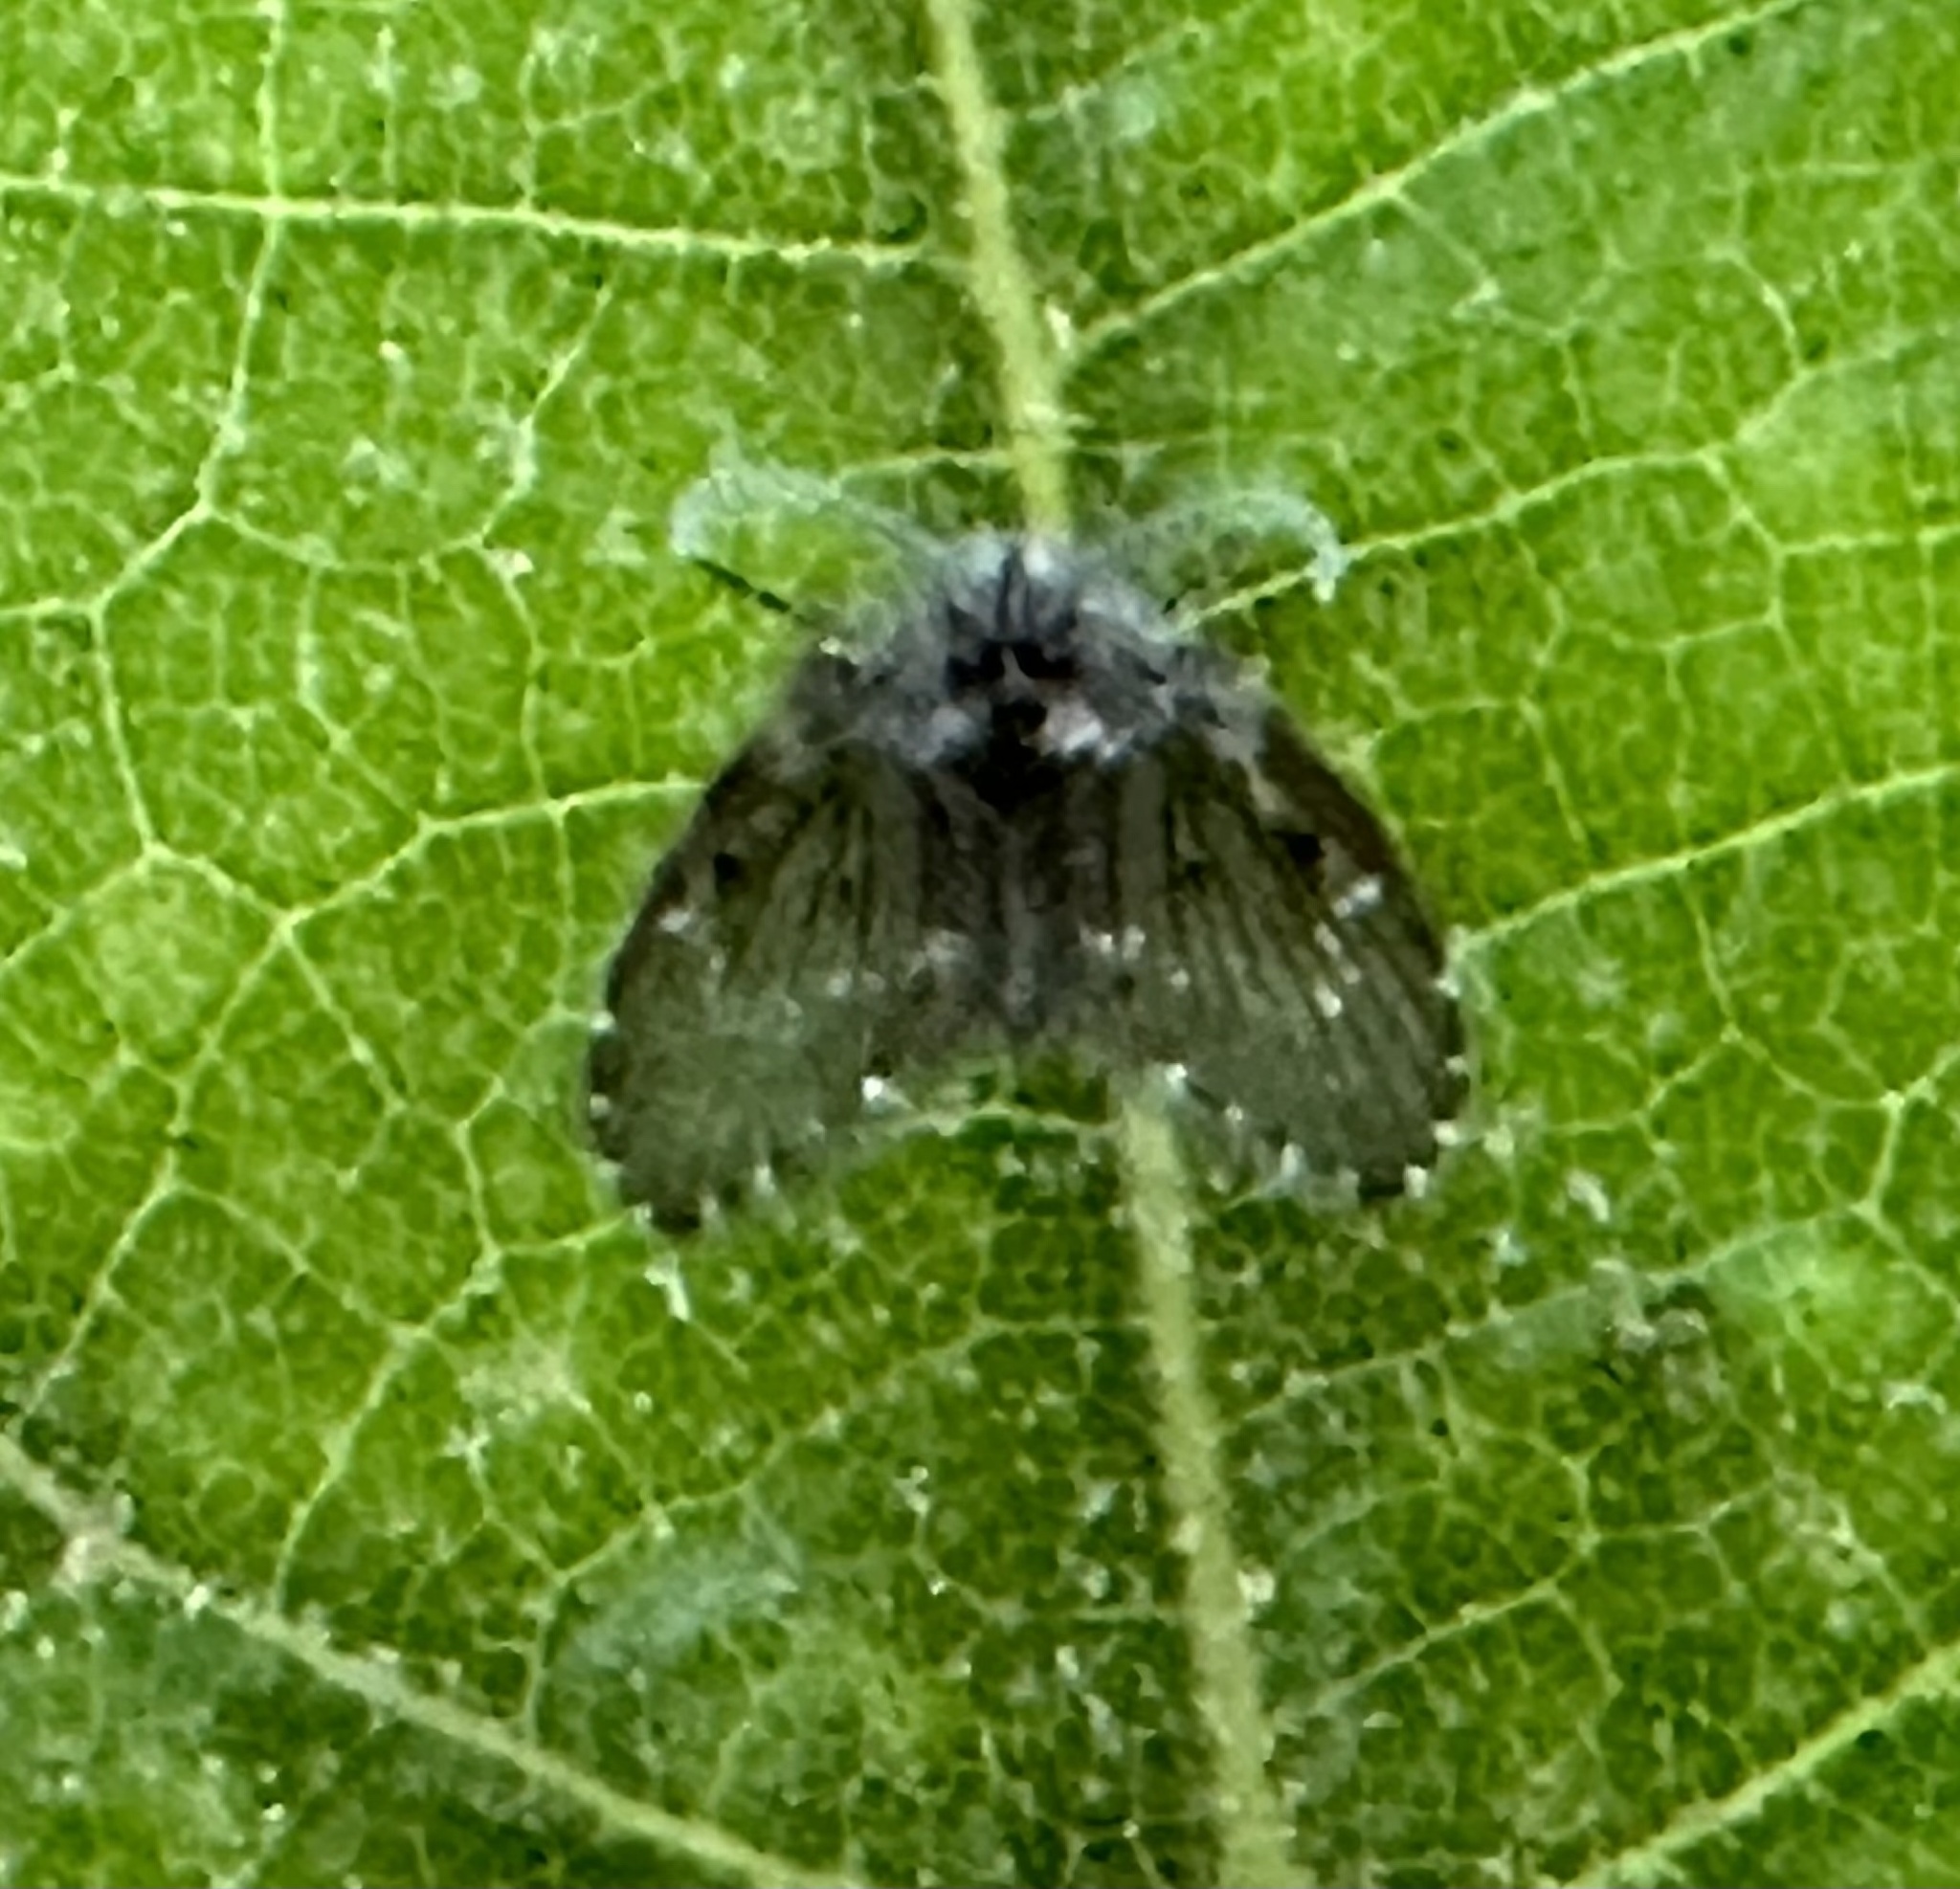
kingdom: Animalia
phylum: Arthropoda
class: Insecta
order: Diptera
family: Psychodidae
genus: Clogmia
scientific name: Clogmia albipunctatus
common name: White-spotted moth fly
